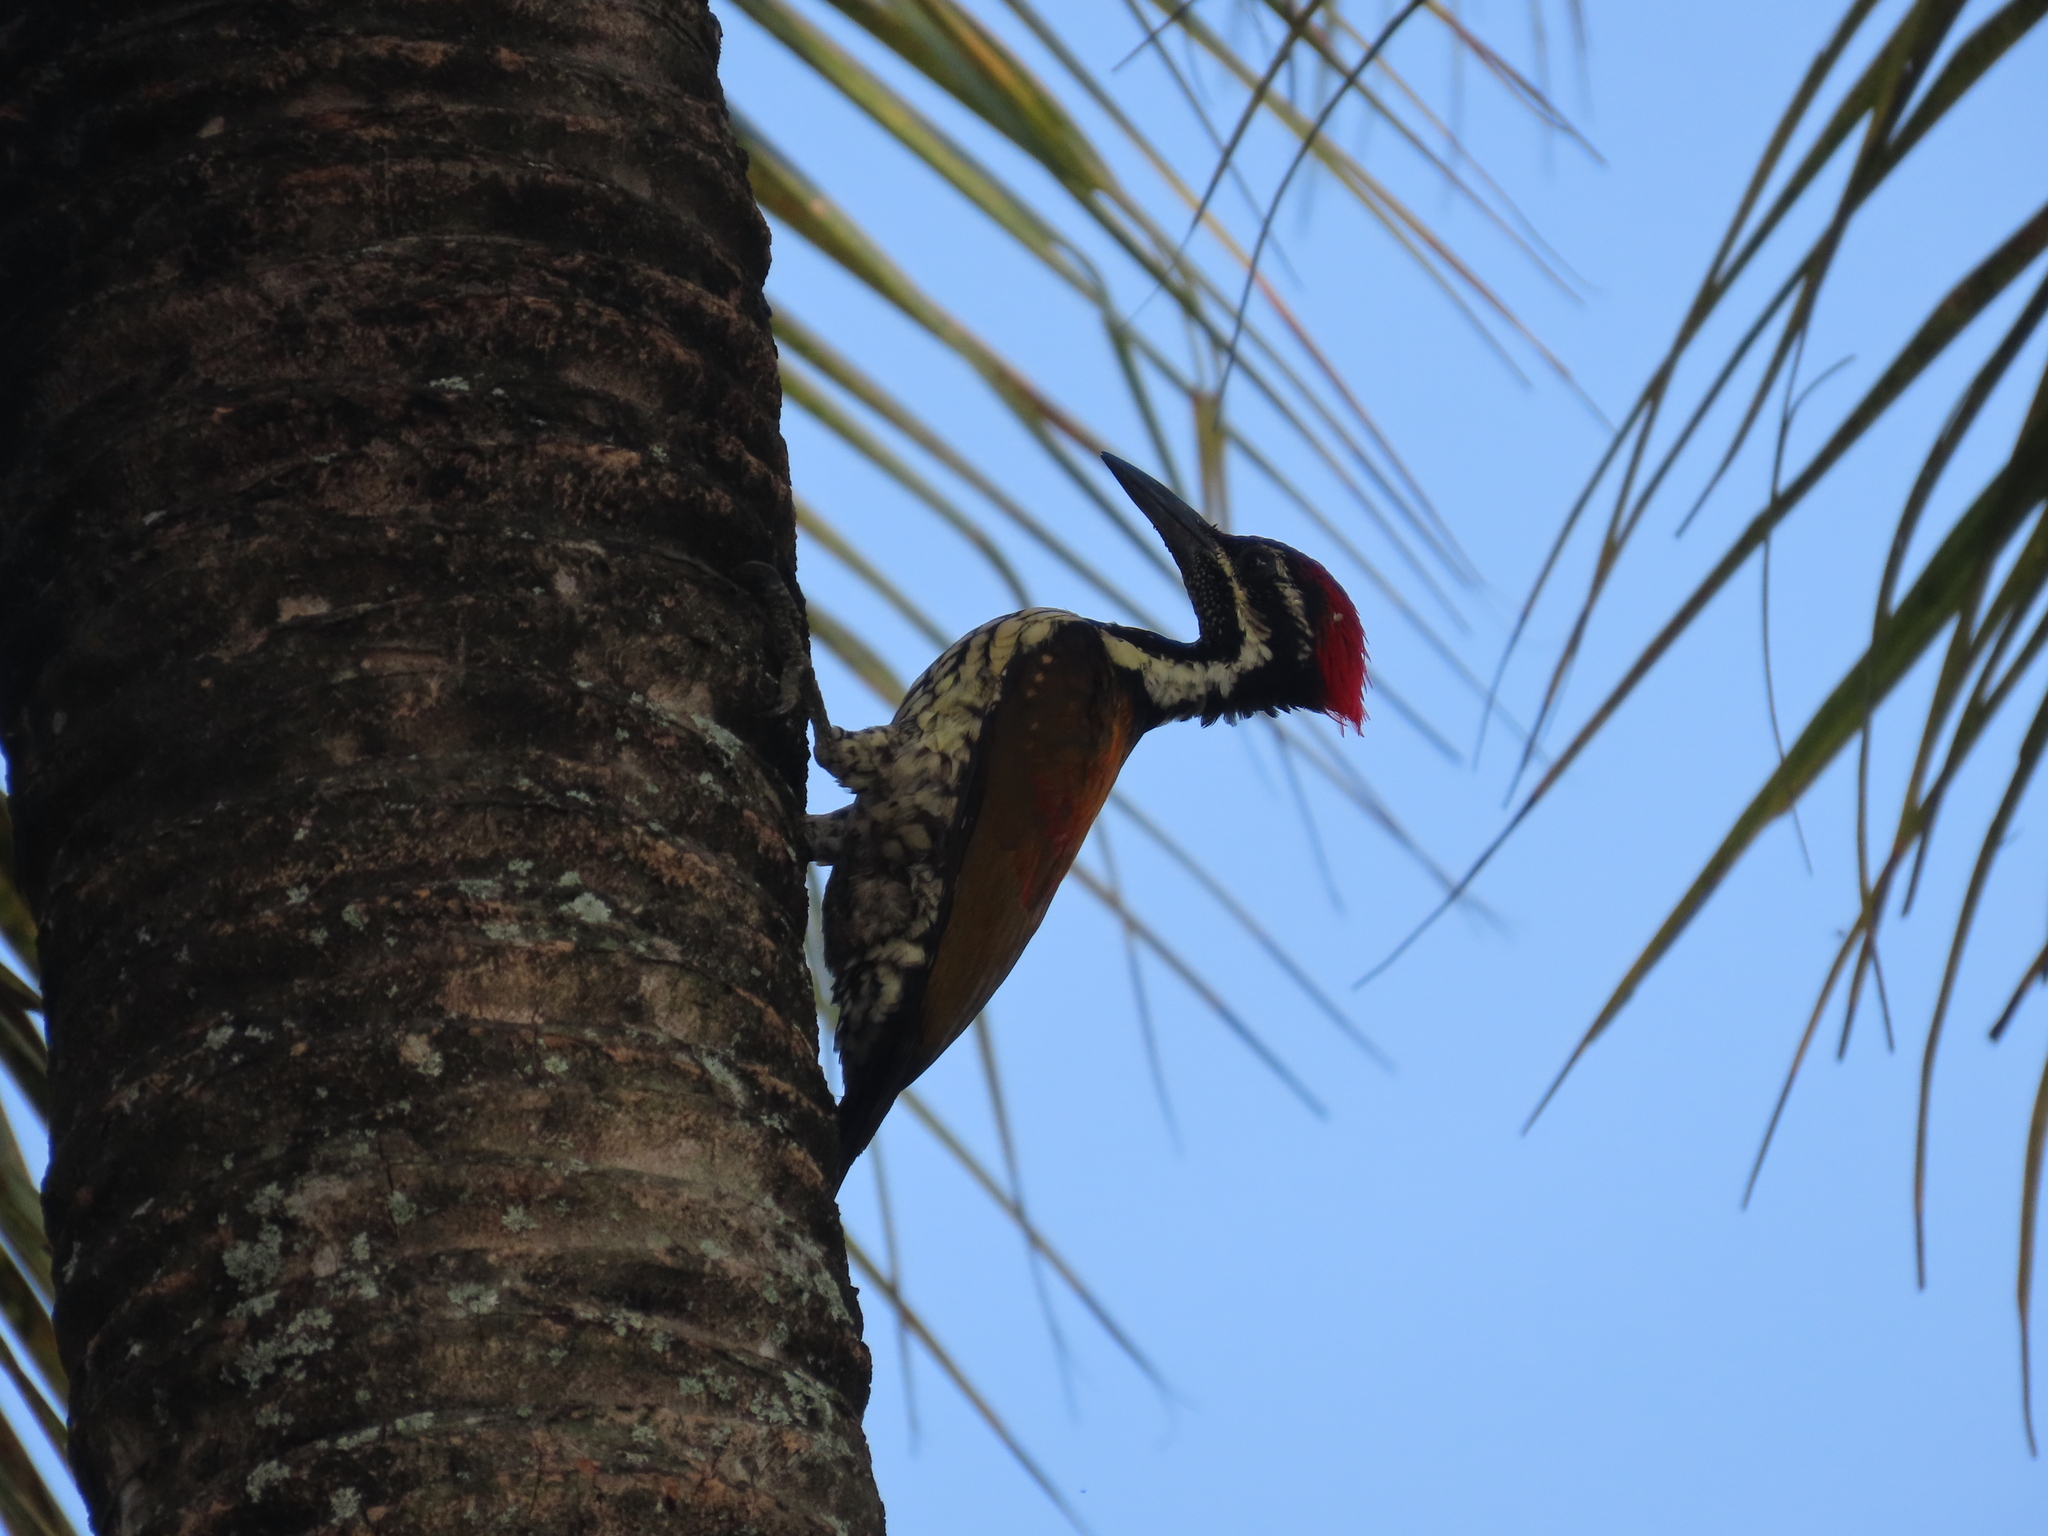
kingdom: Animalia
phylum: Chordata
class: Aves
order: Piciformes
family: Picidae
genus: Dinopium
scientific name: Dinopium benghalense
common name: Black-rumped flameback
